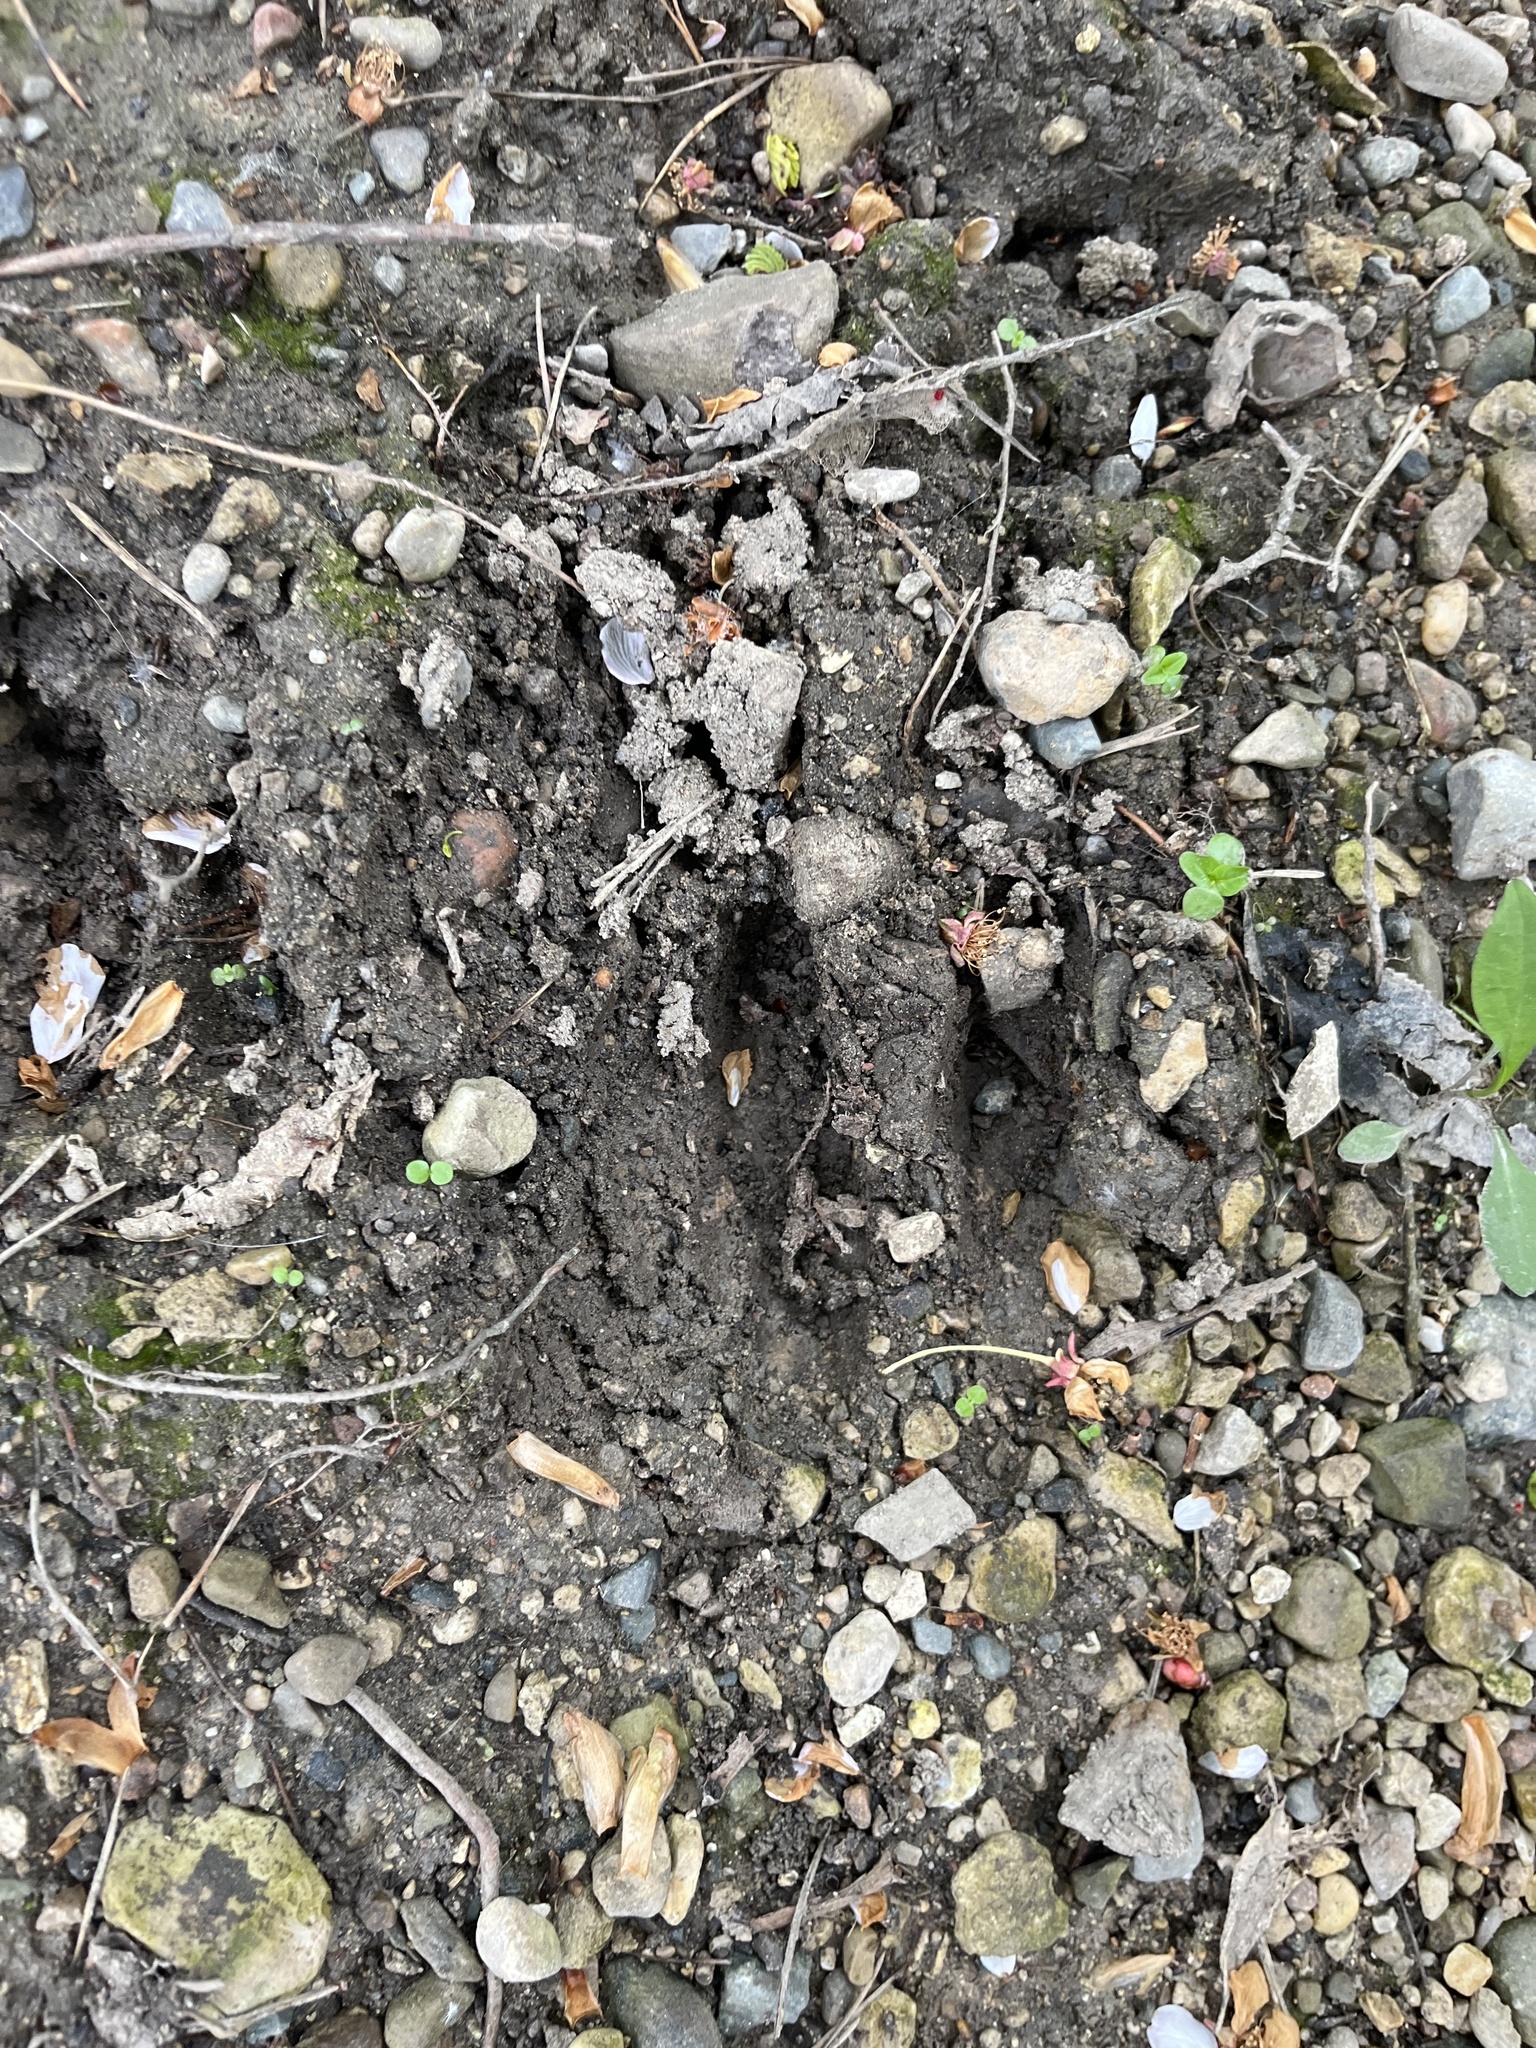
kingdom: Animalia
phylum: Chordata
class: Mammalia
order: Artiodactyla
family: Cervidae
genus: Odocoileus
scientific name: Odocoileus virginianus
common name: White-tailed deer
